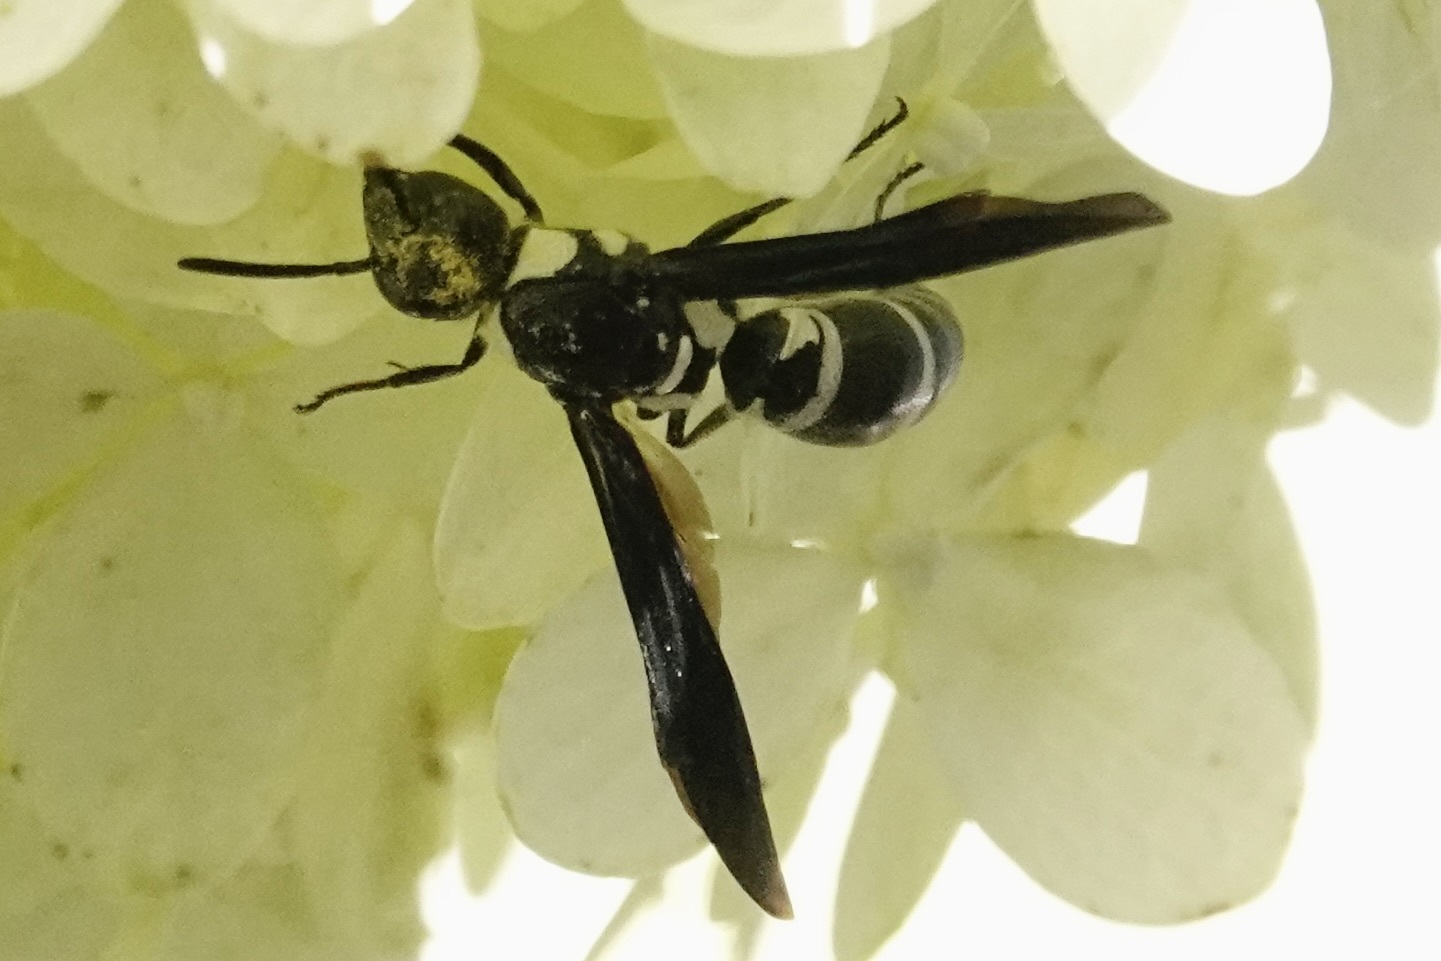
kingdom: Animalia
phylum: Arthropoda
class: Insecta
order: Hymenoptera
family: Eumenidae
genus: Pseudodynerus
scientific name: Pseudodynerus quadrisectus
